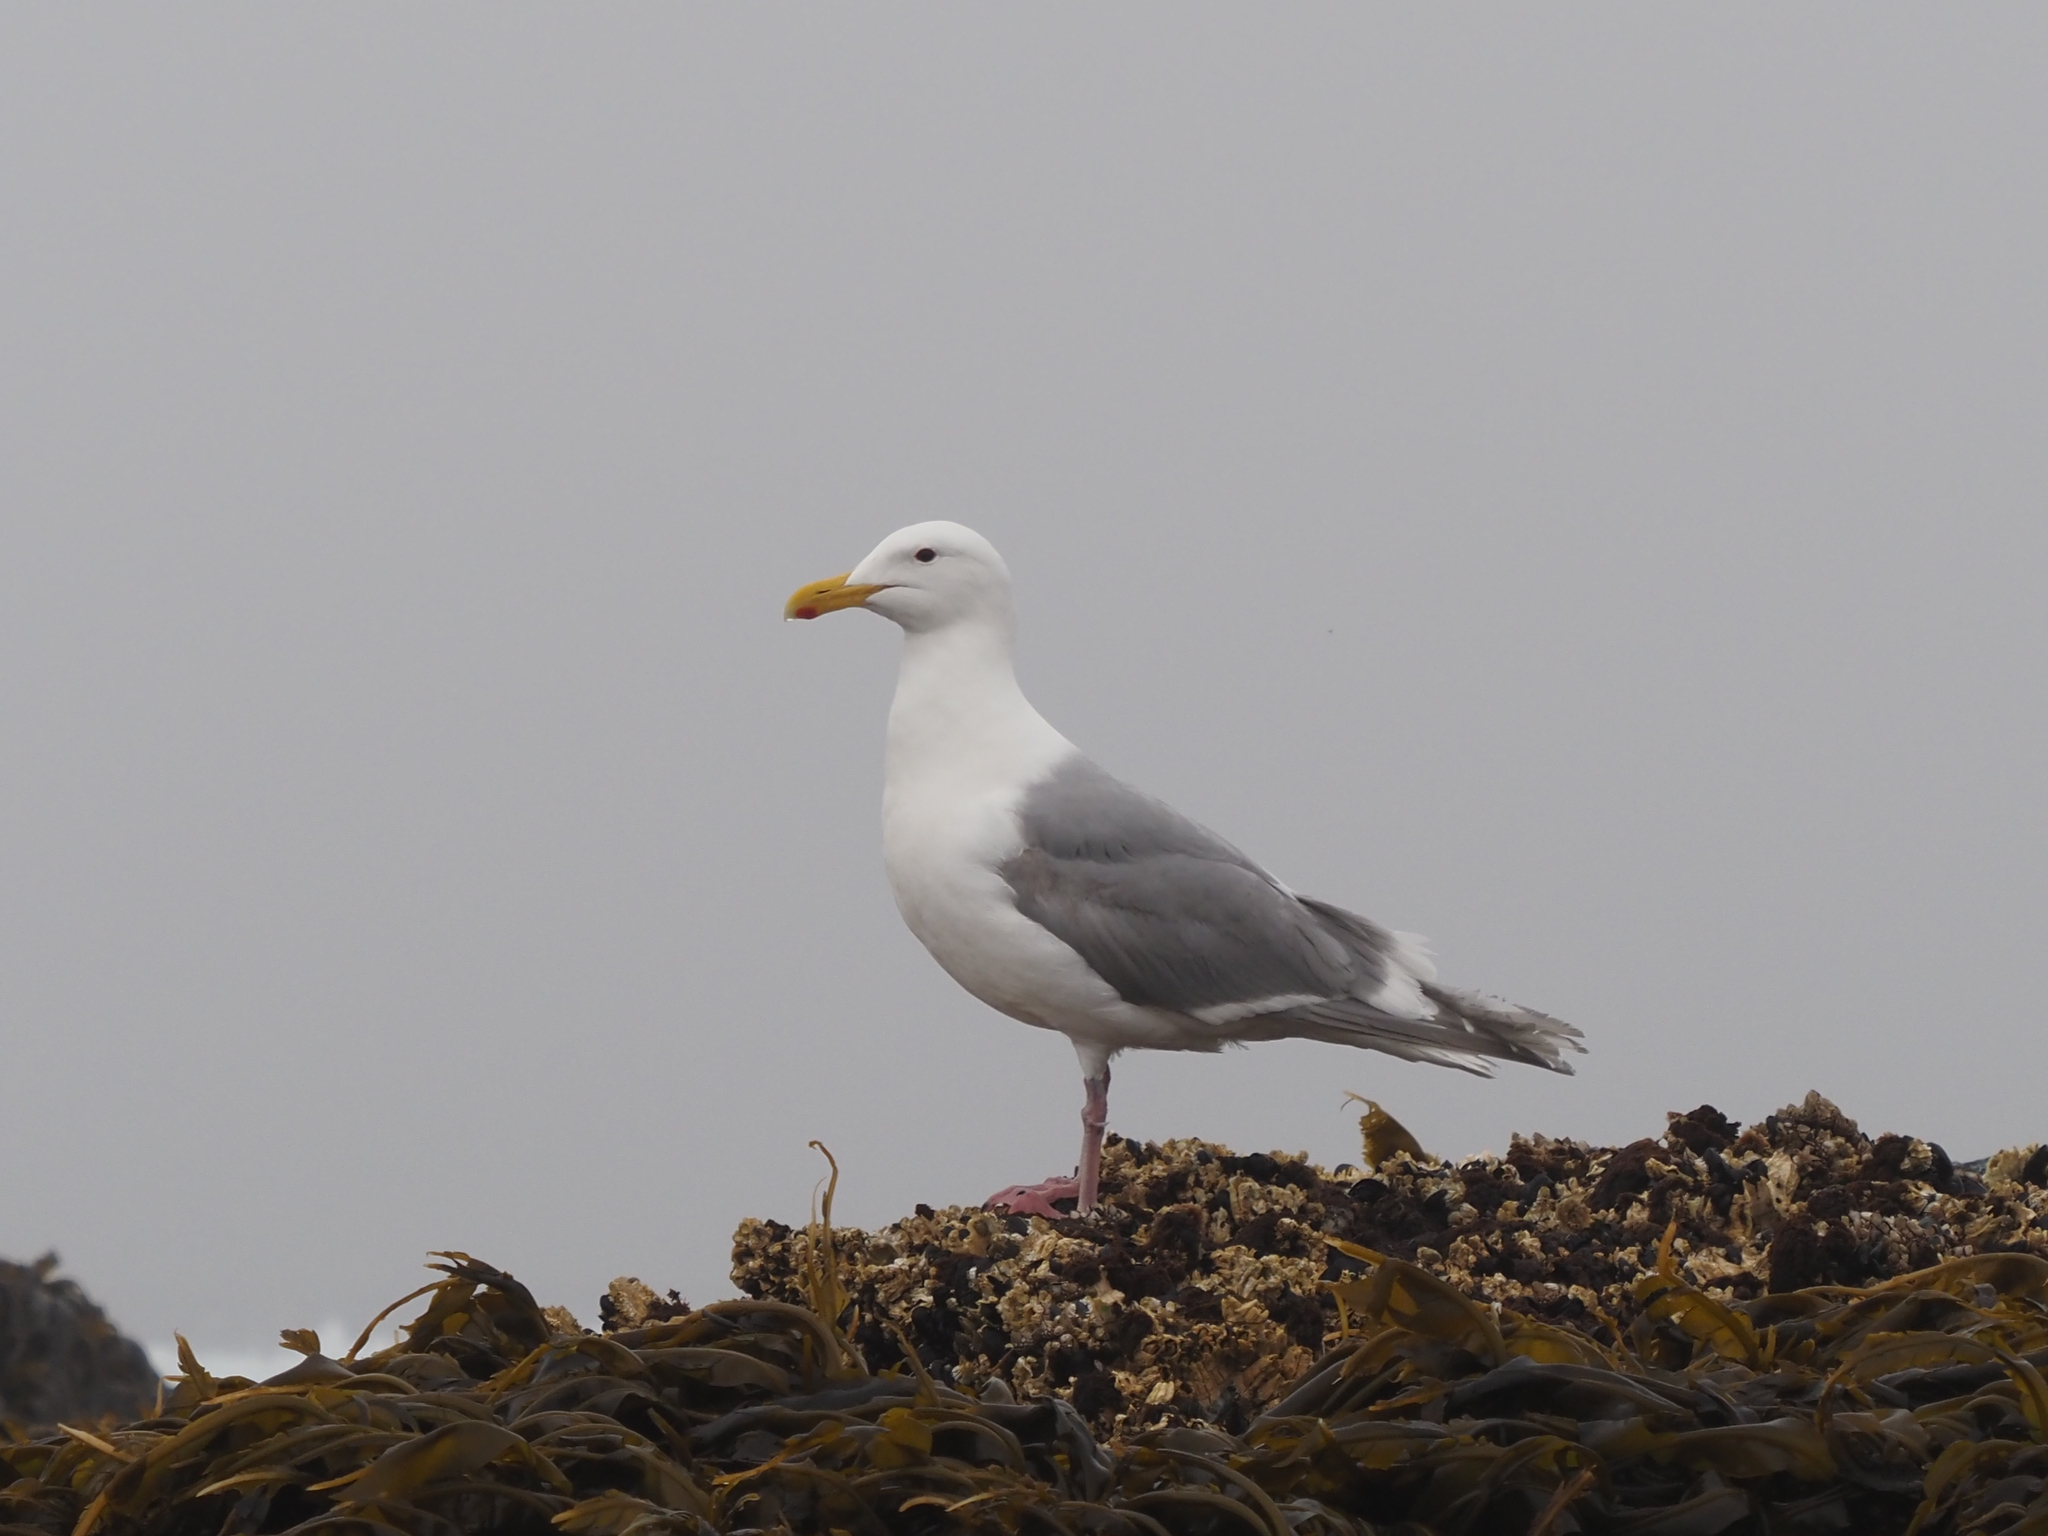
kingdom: Animalia
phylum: Chordata
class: Aves
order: Charadriiformes
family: Laridae
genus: Larus
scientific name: Larus glaucescens
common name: Glaucous-winged gull
